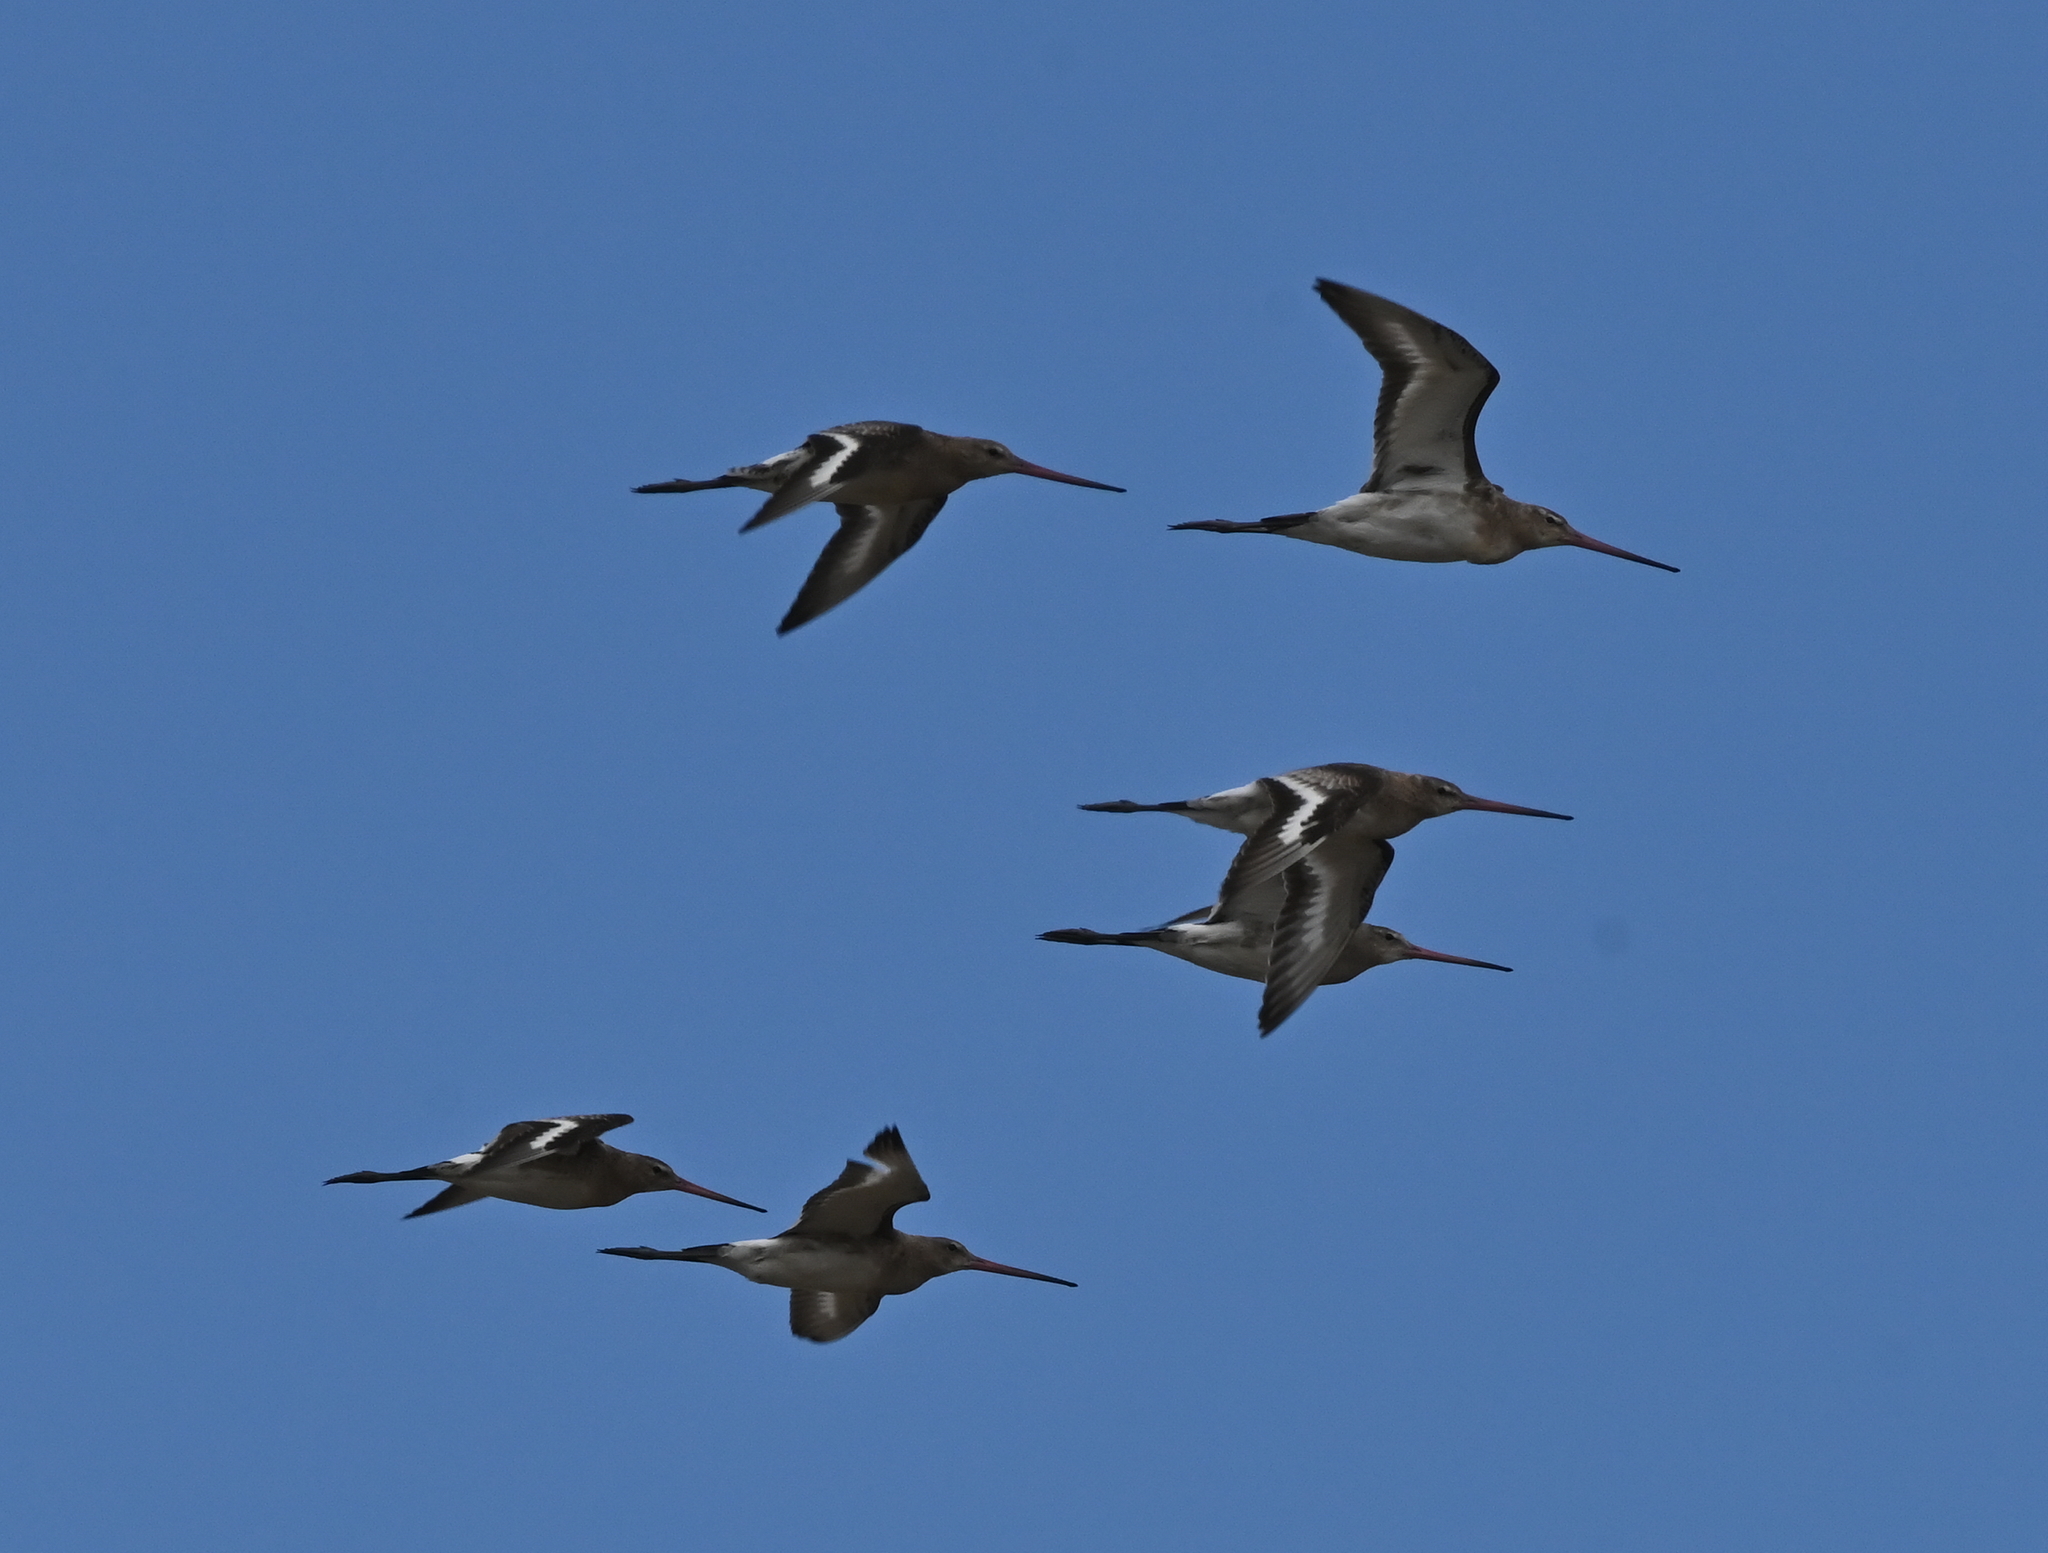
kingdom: Animalia
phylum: Chordata
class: Aves
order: Charadriiformes
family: Scolopacidae
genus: Limosa
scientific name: Limosa limosa
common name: Black-tailed godwit
